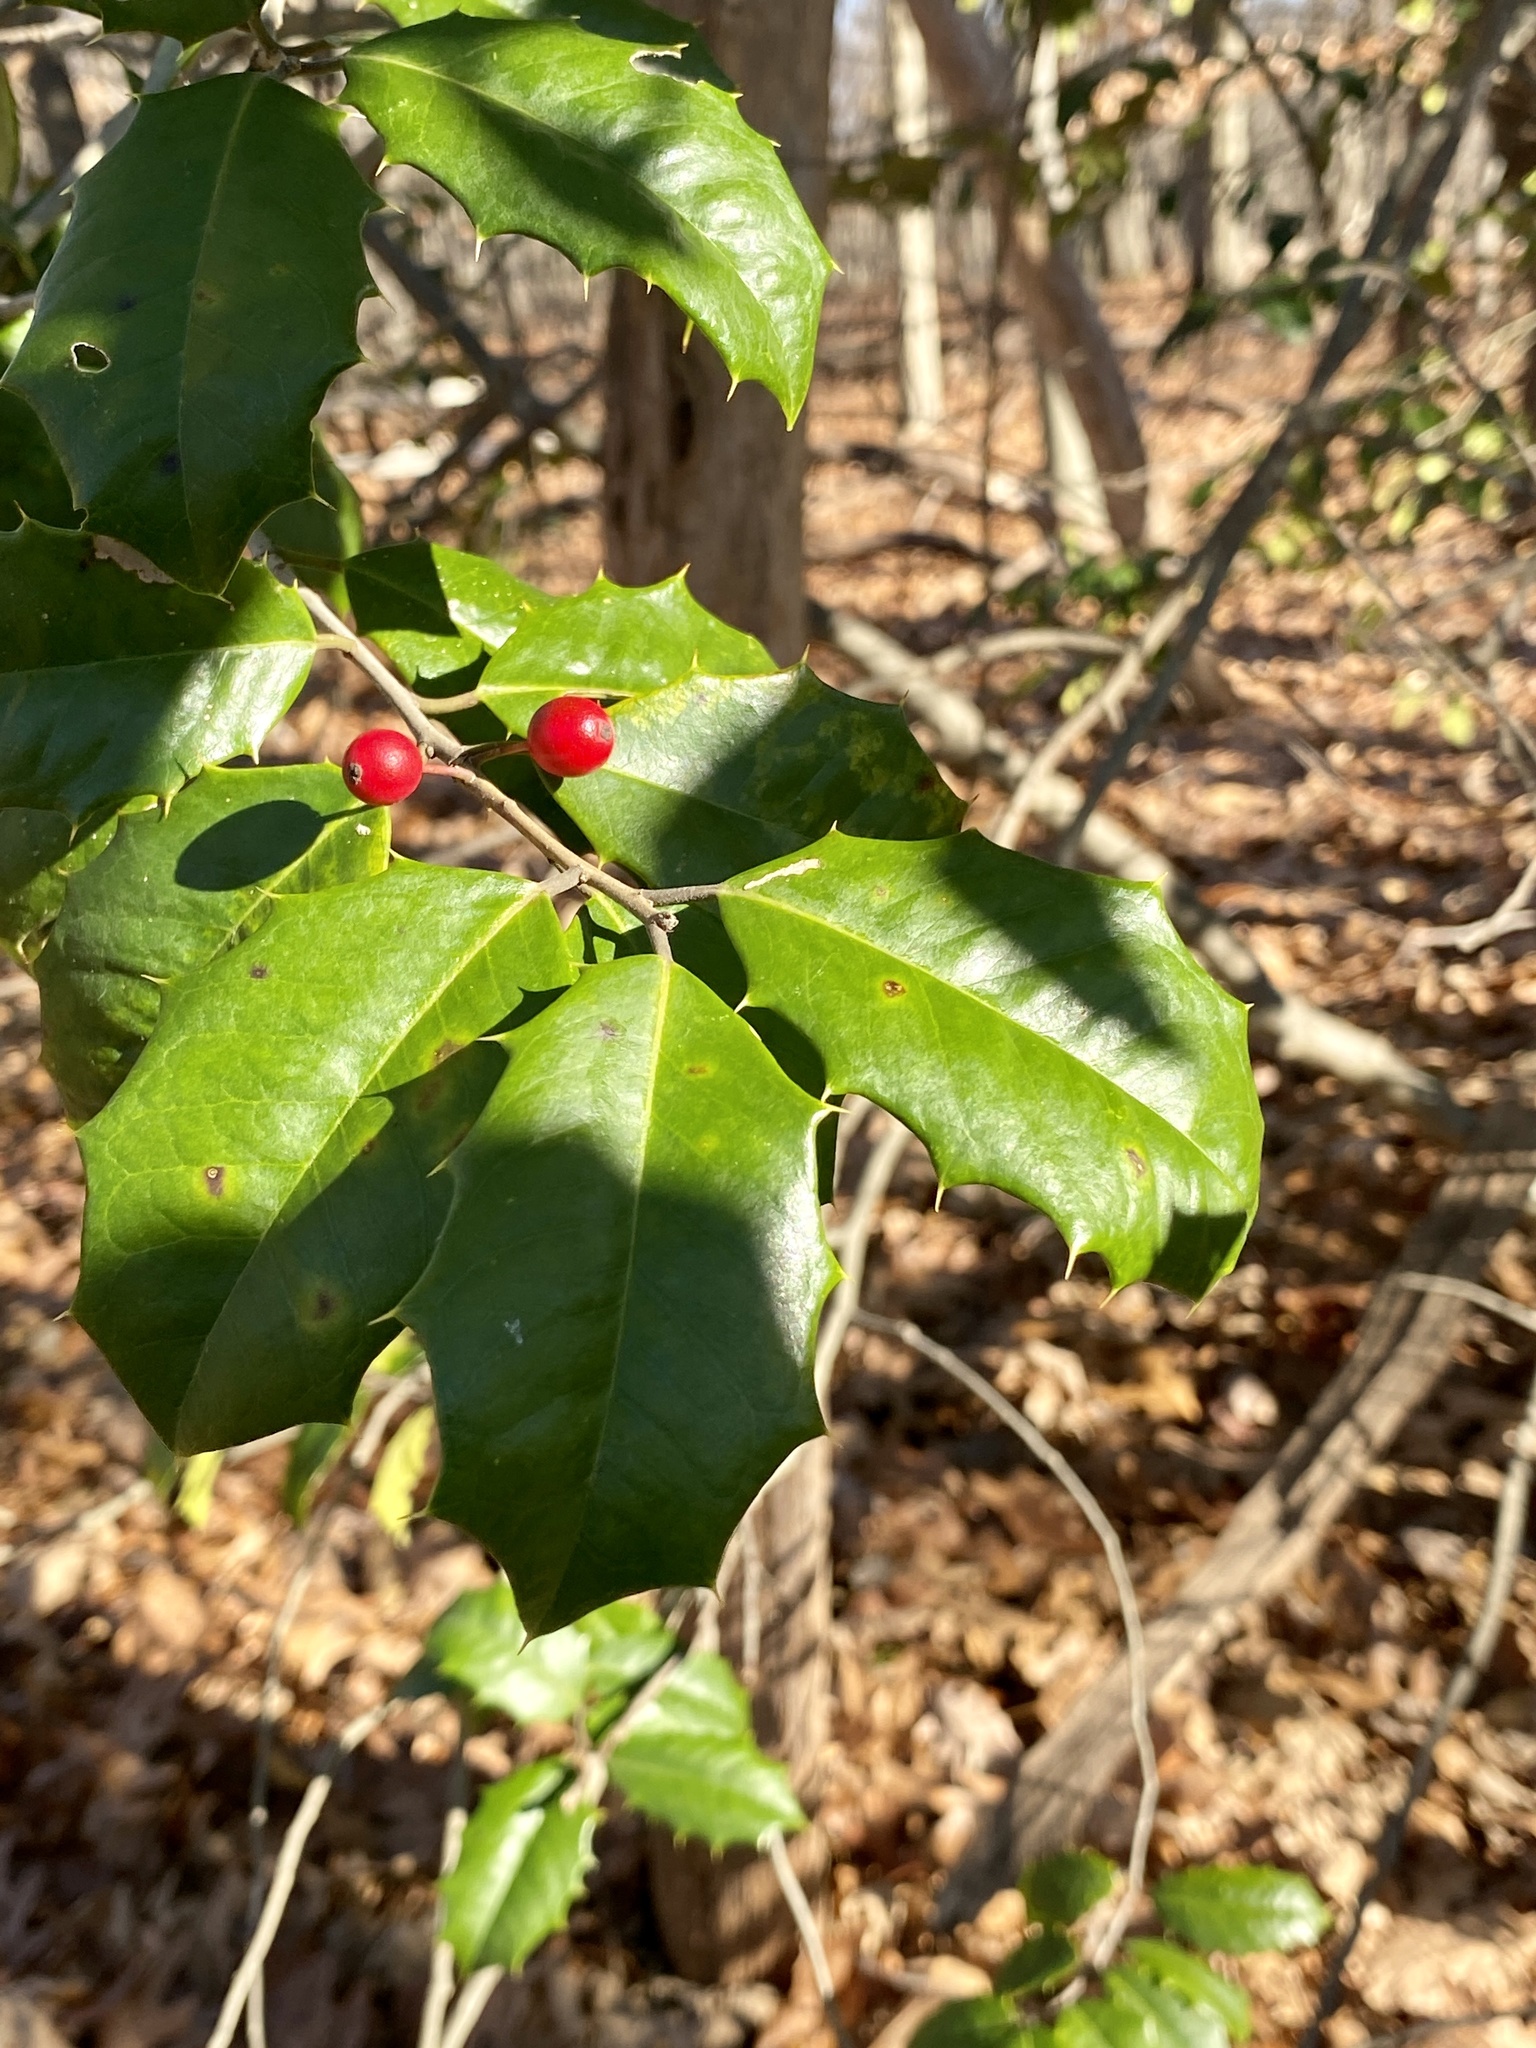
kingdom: Plantae
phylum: Tracheophyta
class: Magnoliopsida
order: Aquifoliales
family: Aquifoliaceae
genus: Ilex
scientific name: Ilex opaca
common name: American holly
